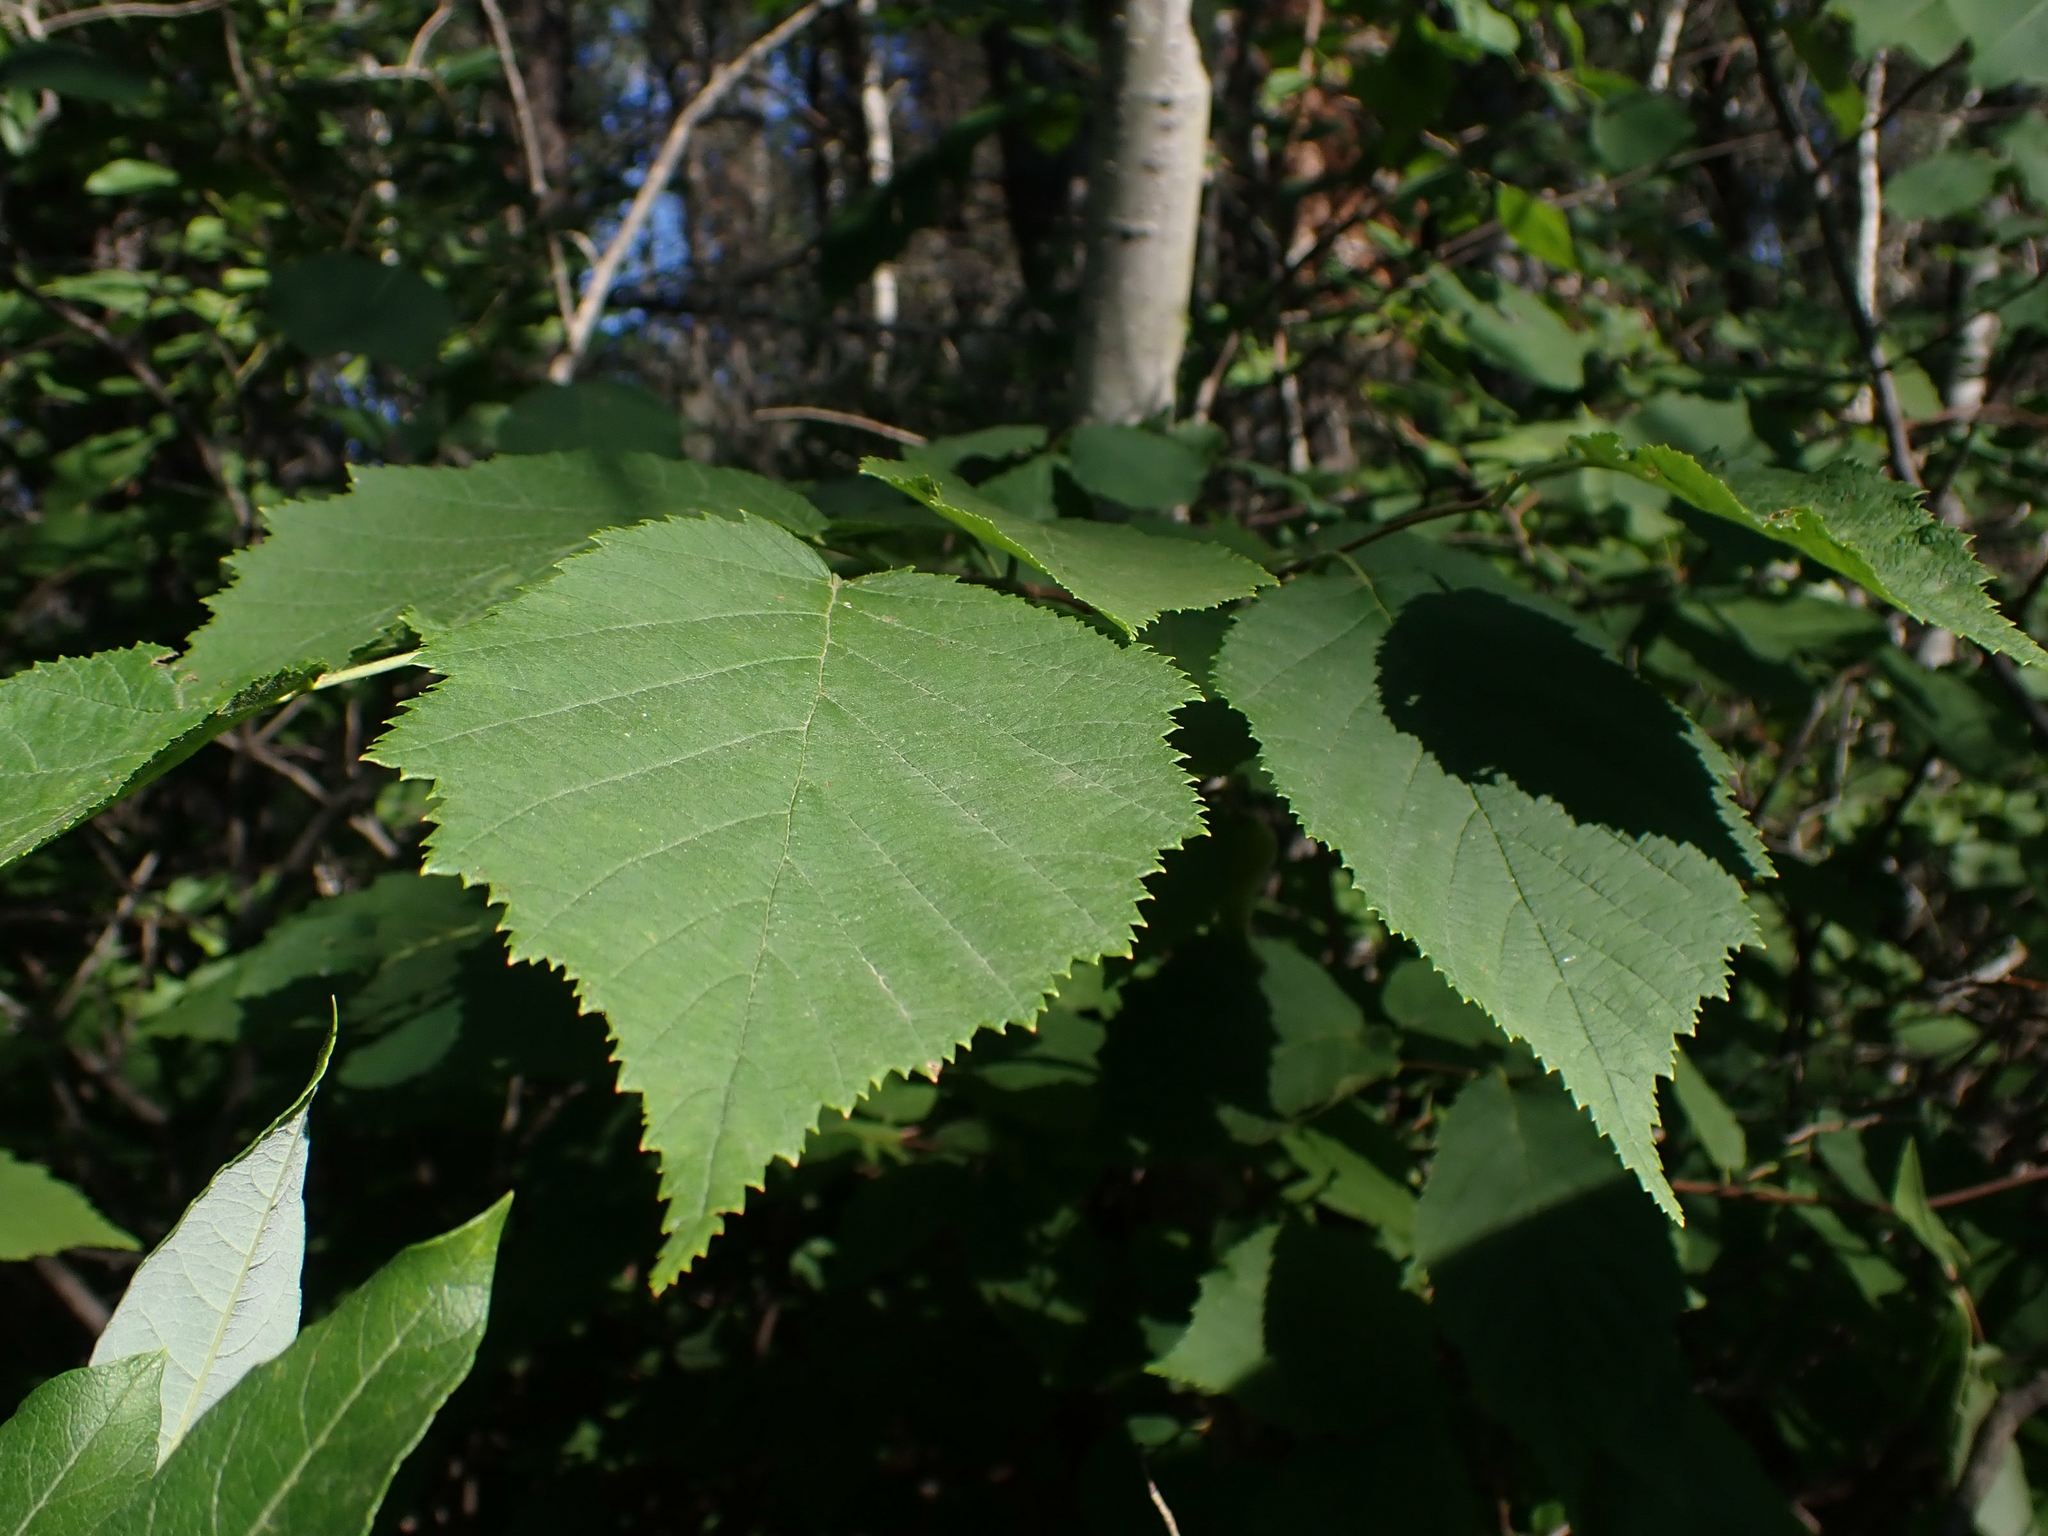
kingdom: Plantae
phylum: Tracheophyta
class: Magnoliopsida
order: Fagales
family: Betulaceae
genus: Corylus
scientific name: Corylus cornuta
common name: Beaked hazel
